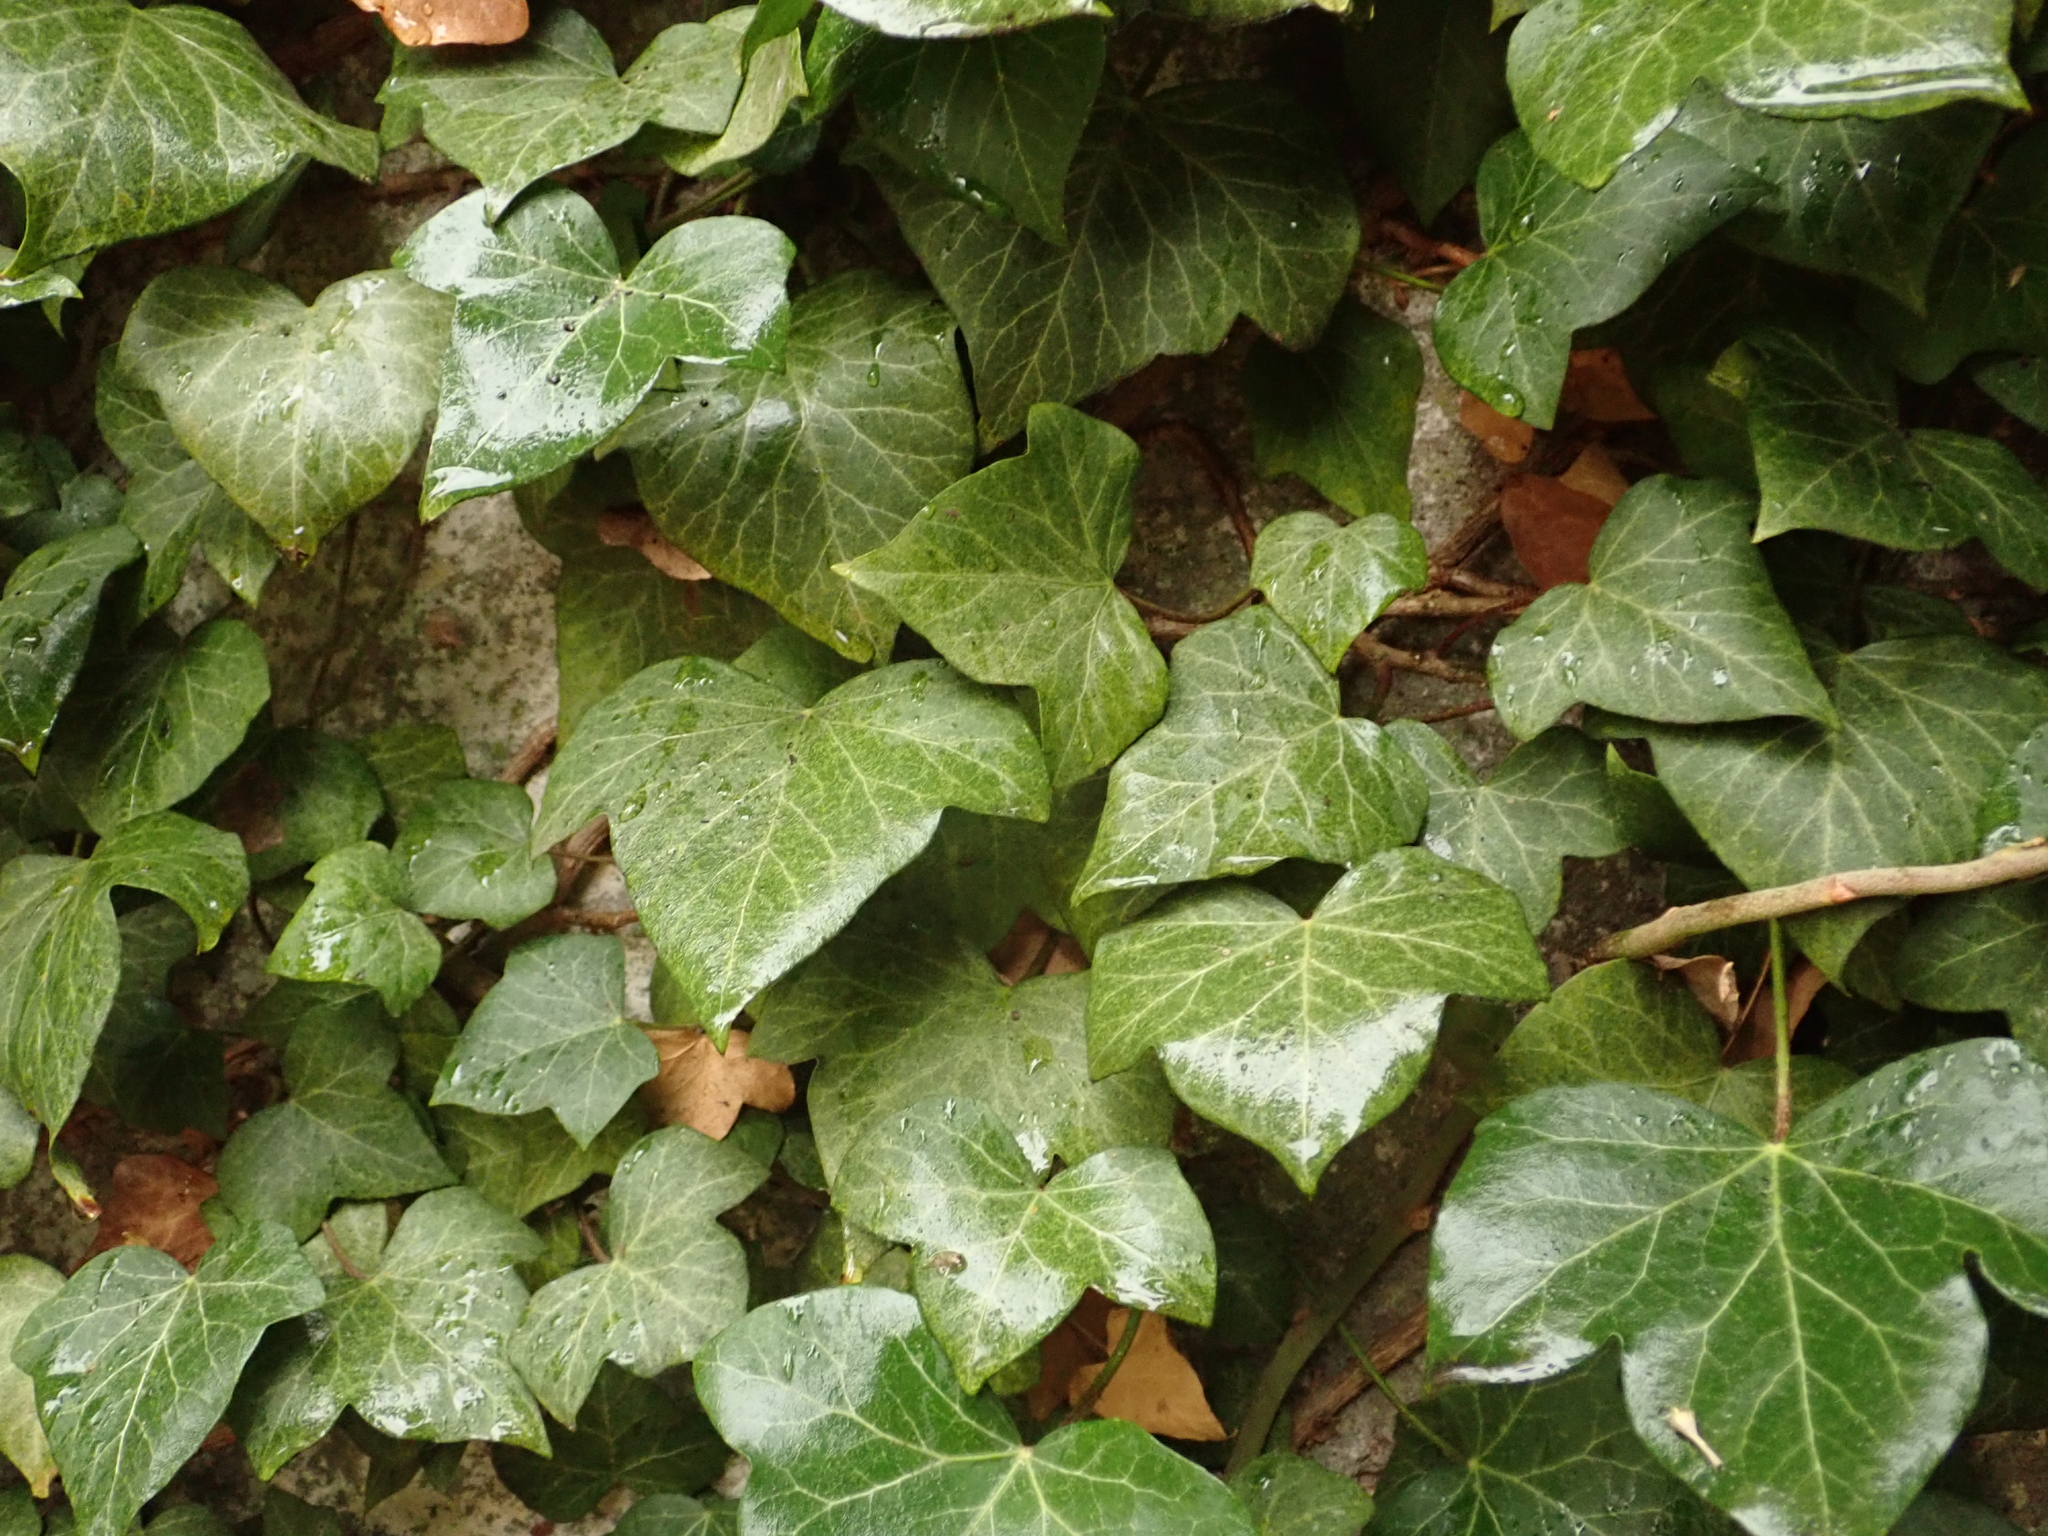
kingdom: Plantae
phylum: Tracheophyta
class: Magnoliopsida
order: Apiales
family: Araliaceae
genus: Hedera
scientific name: Hedera helix
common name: Ivy
